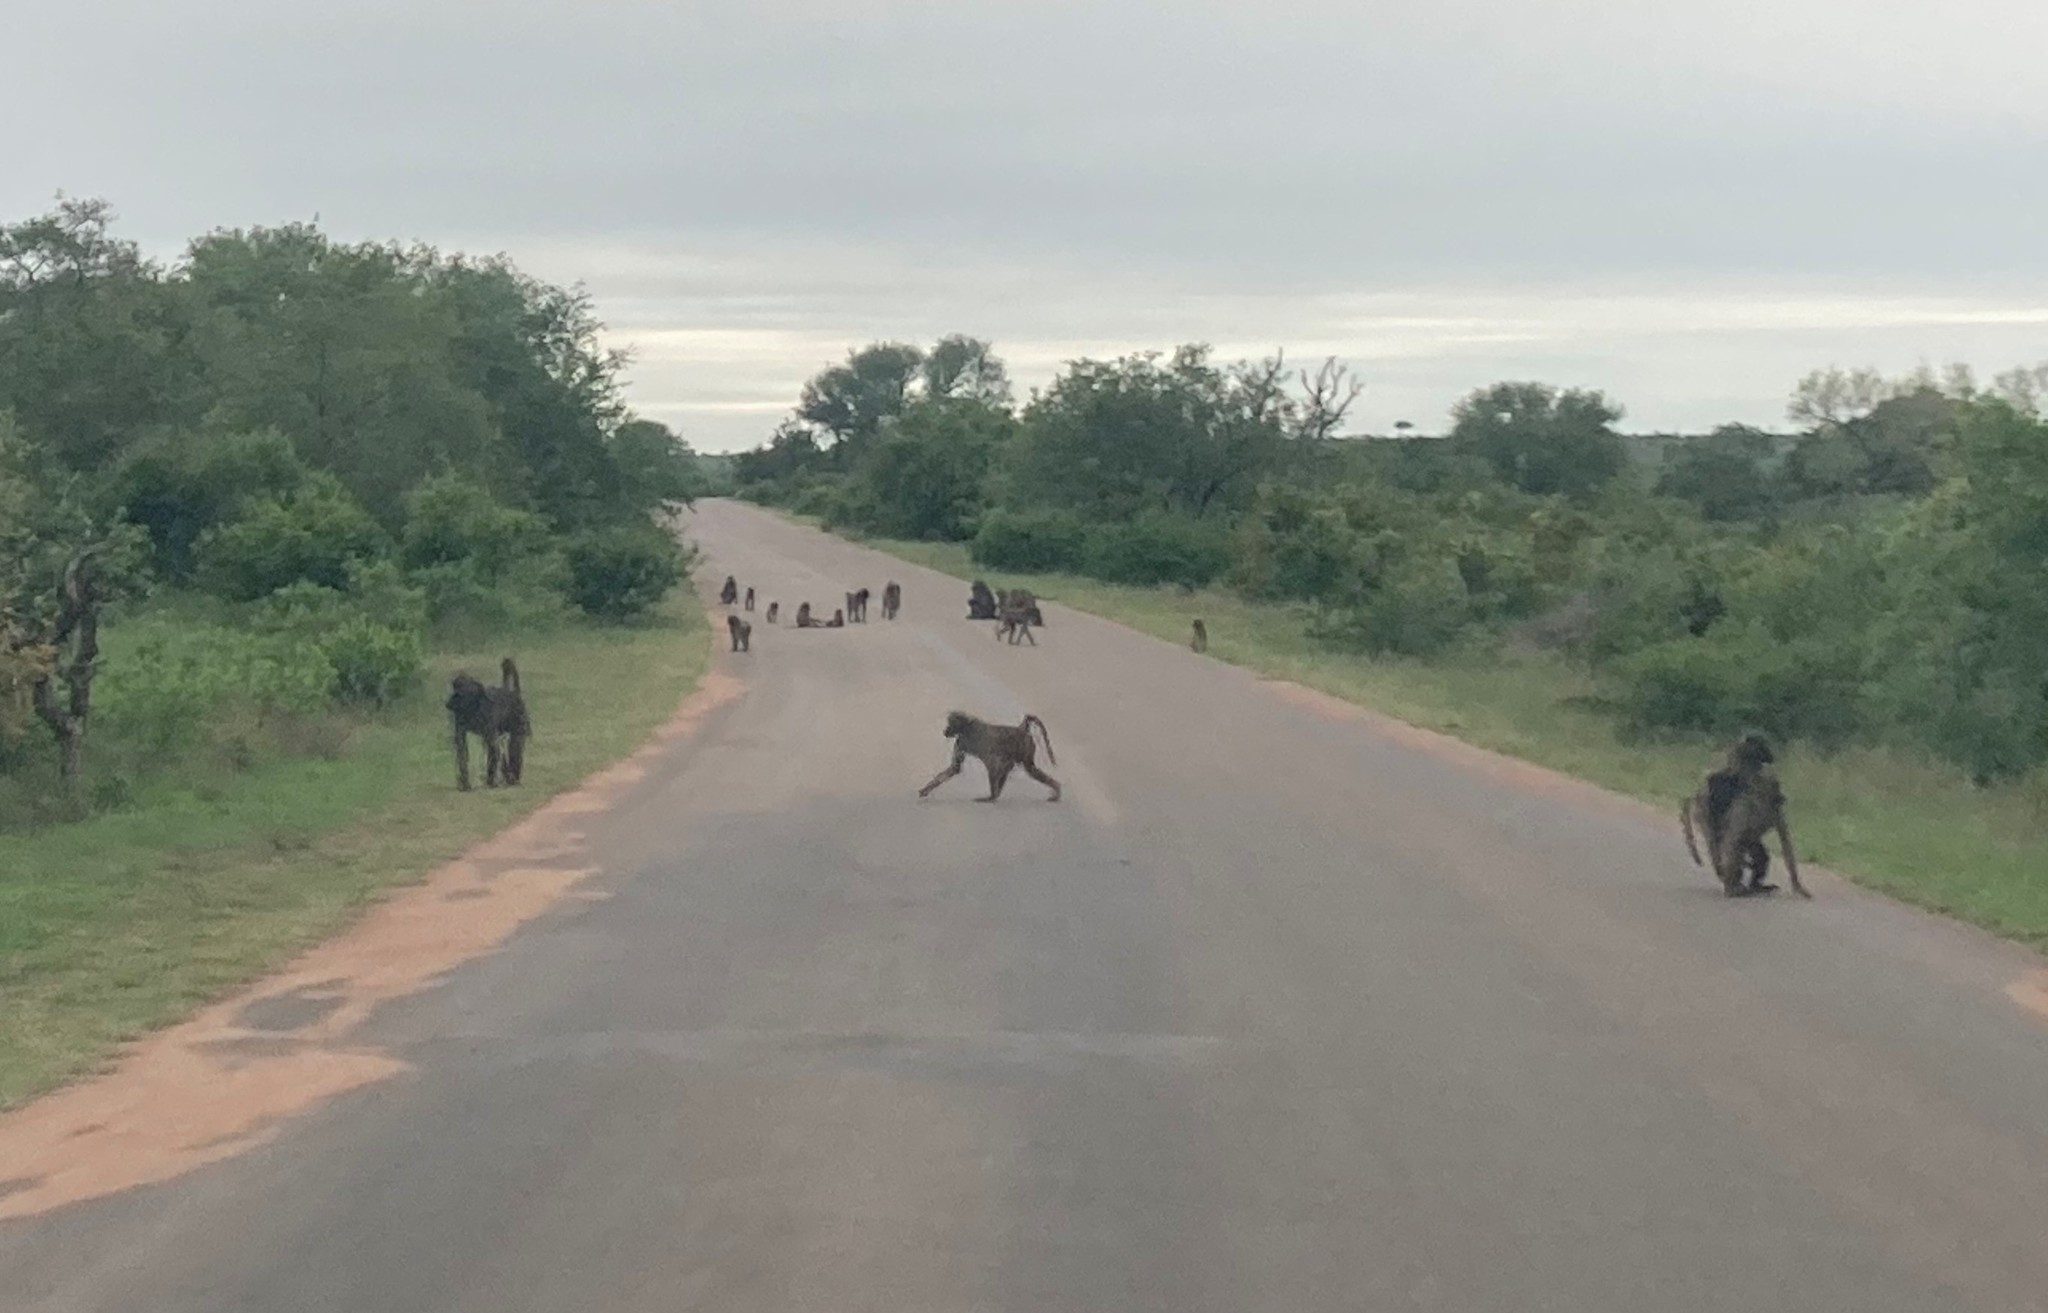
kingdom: Animalia
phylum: Chordata
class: Mammalia
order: Primates
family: Cercopithecidae
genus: Papio
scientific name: Papio ursinus
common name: Chacma baboon
